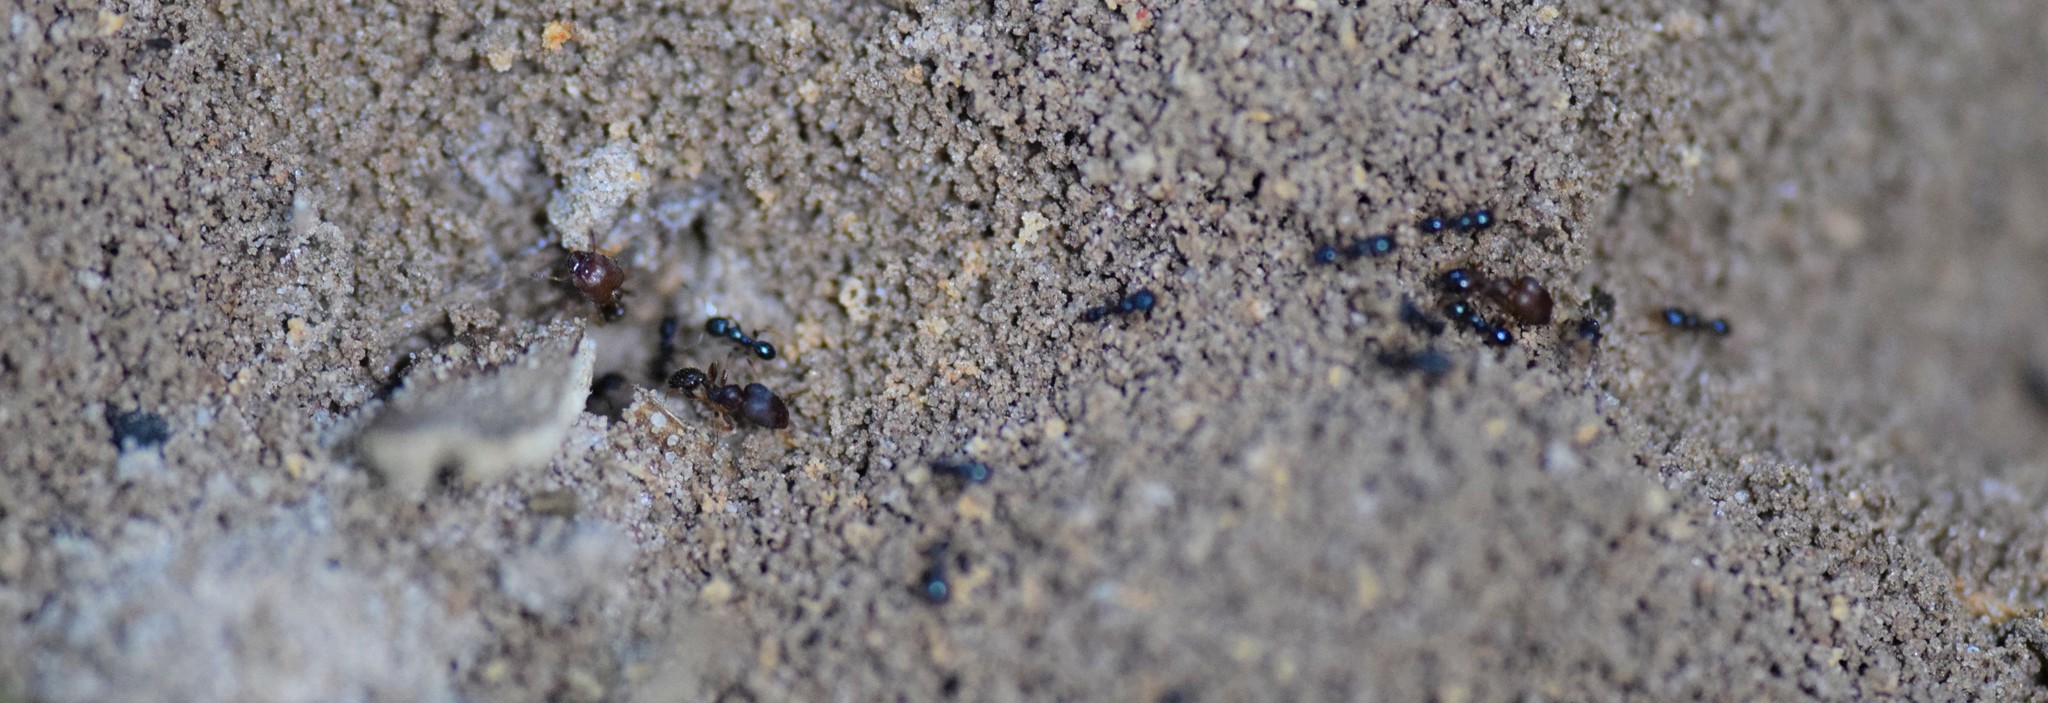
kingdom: Animalia
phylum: Arthropoda
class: Insecta
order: Hymenoptera
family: Formicidae
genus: Pheidole
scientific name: Pheidole metallescens
